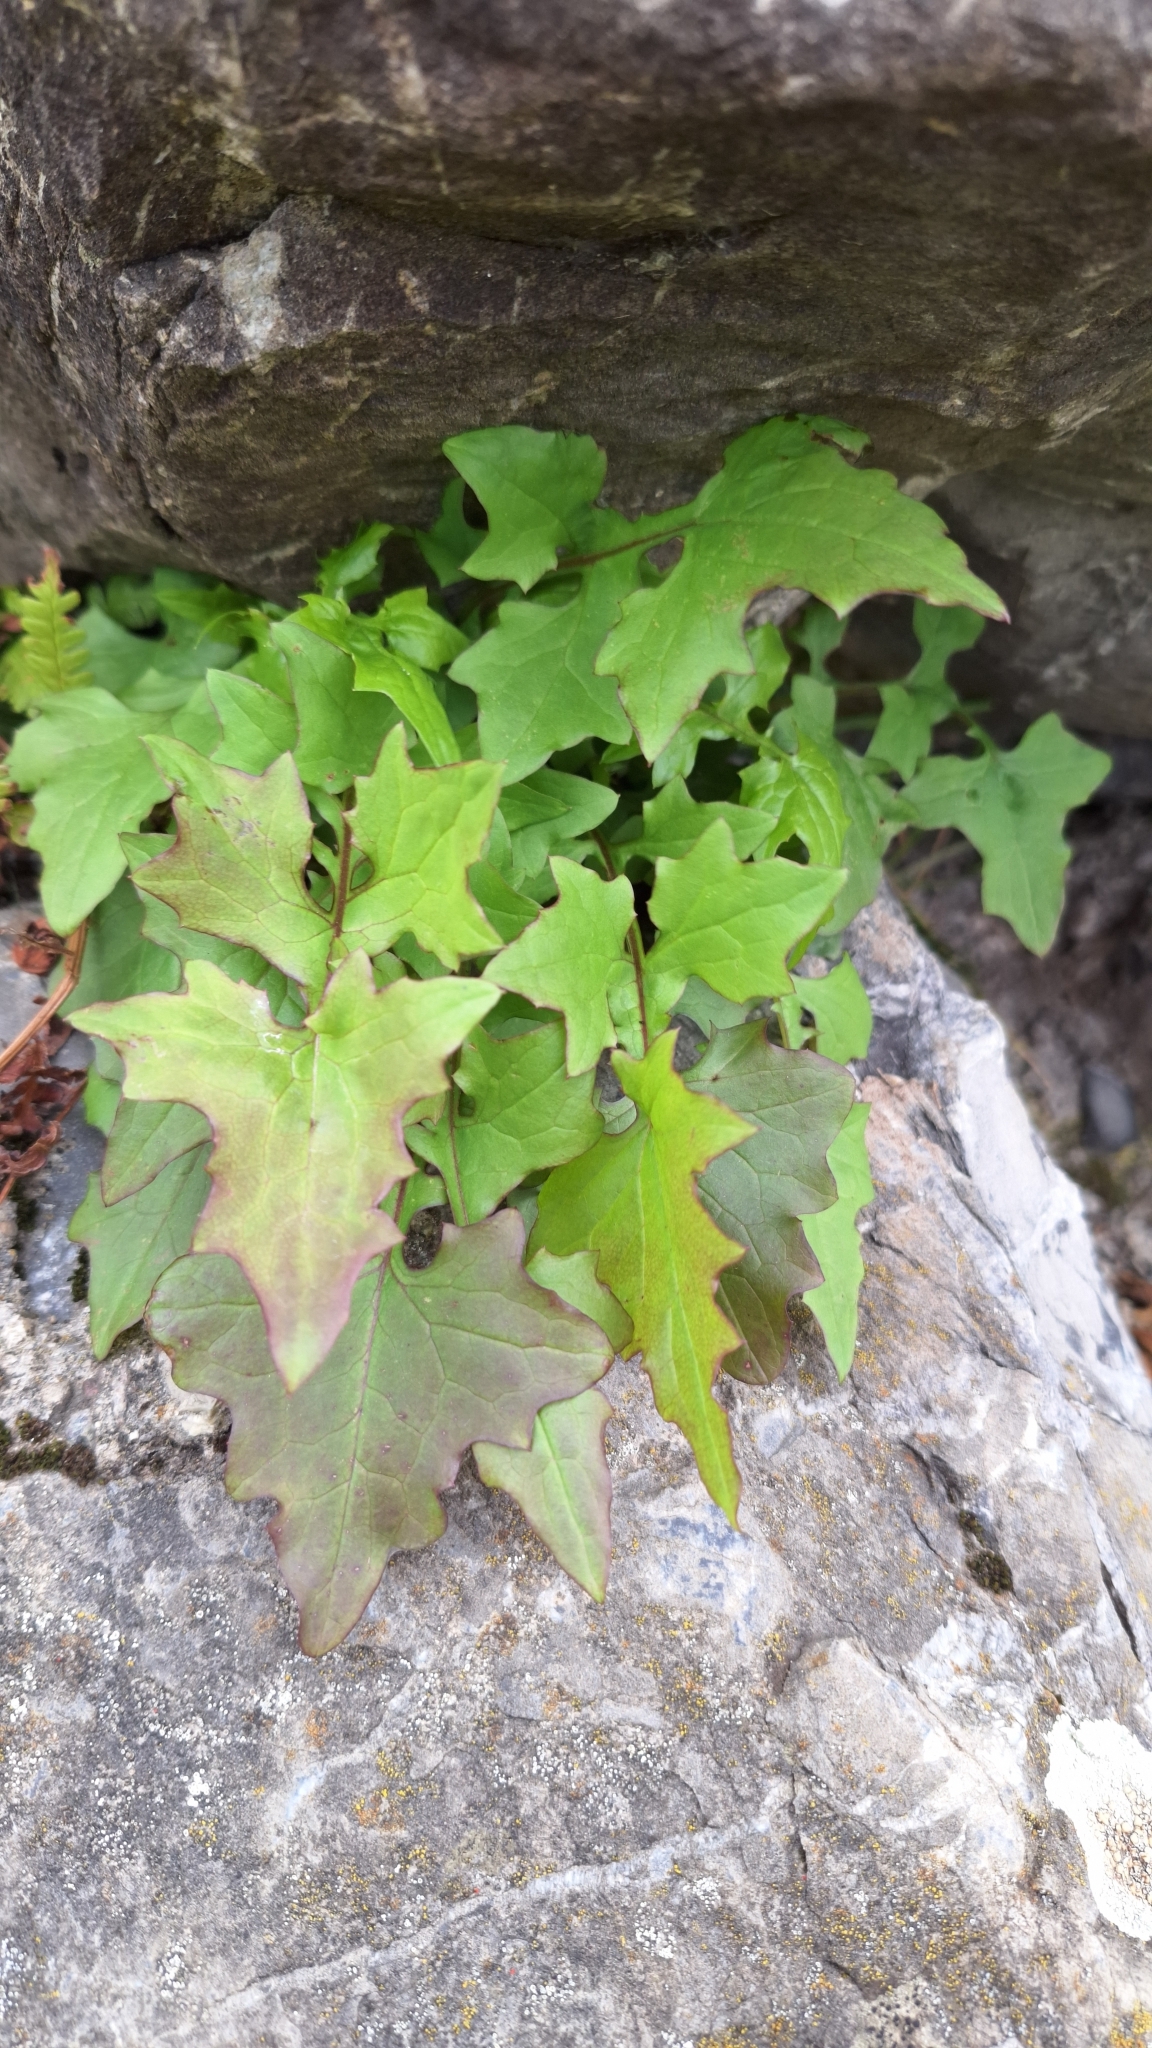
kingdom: Plantae
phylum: Tracheophyta
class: Magnoliopsida
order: Asterales
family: Asteraceae
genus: Mycelis
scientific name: Mycelis muralis
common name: Wall lettuce
